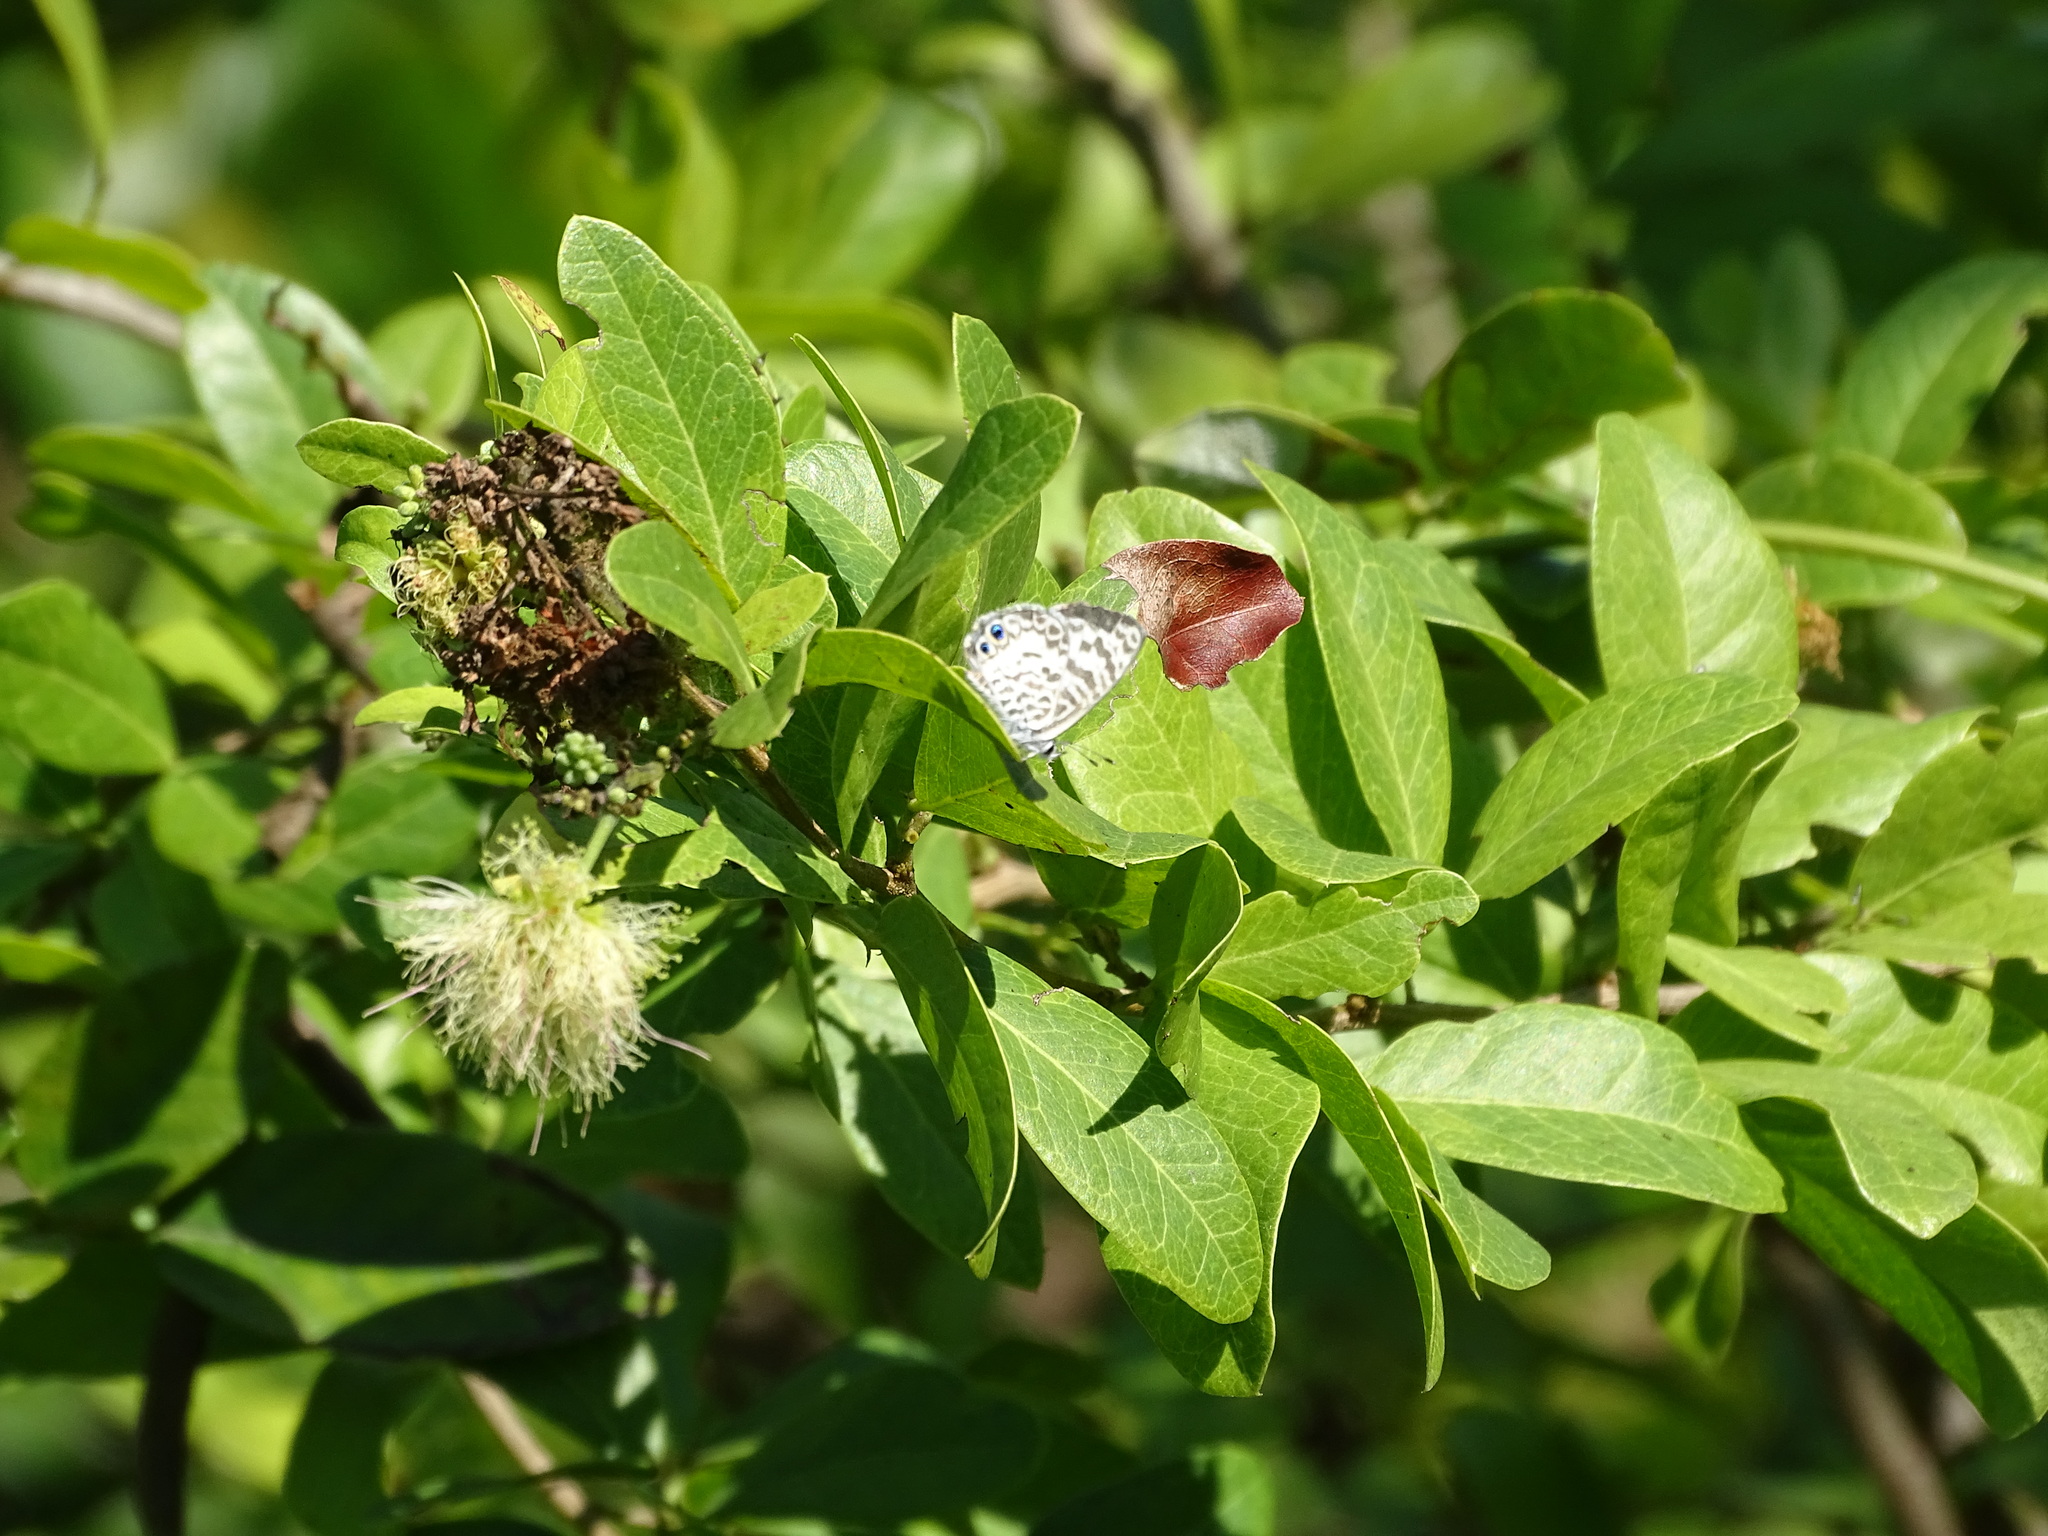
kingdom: Animalia
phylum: Arthropoda
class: Insecta
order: Lepidoptera
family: Lycaenidae
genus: Leptotes
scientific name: Leptotes cassius
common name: Cassius blue
